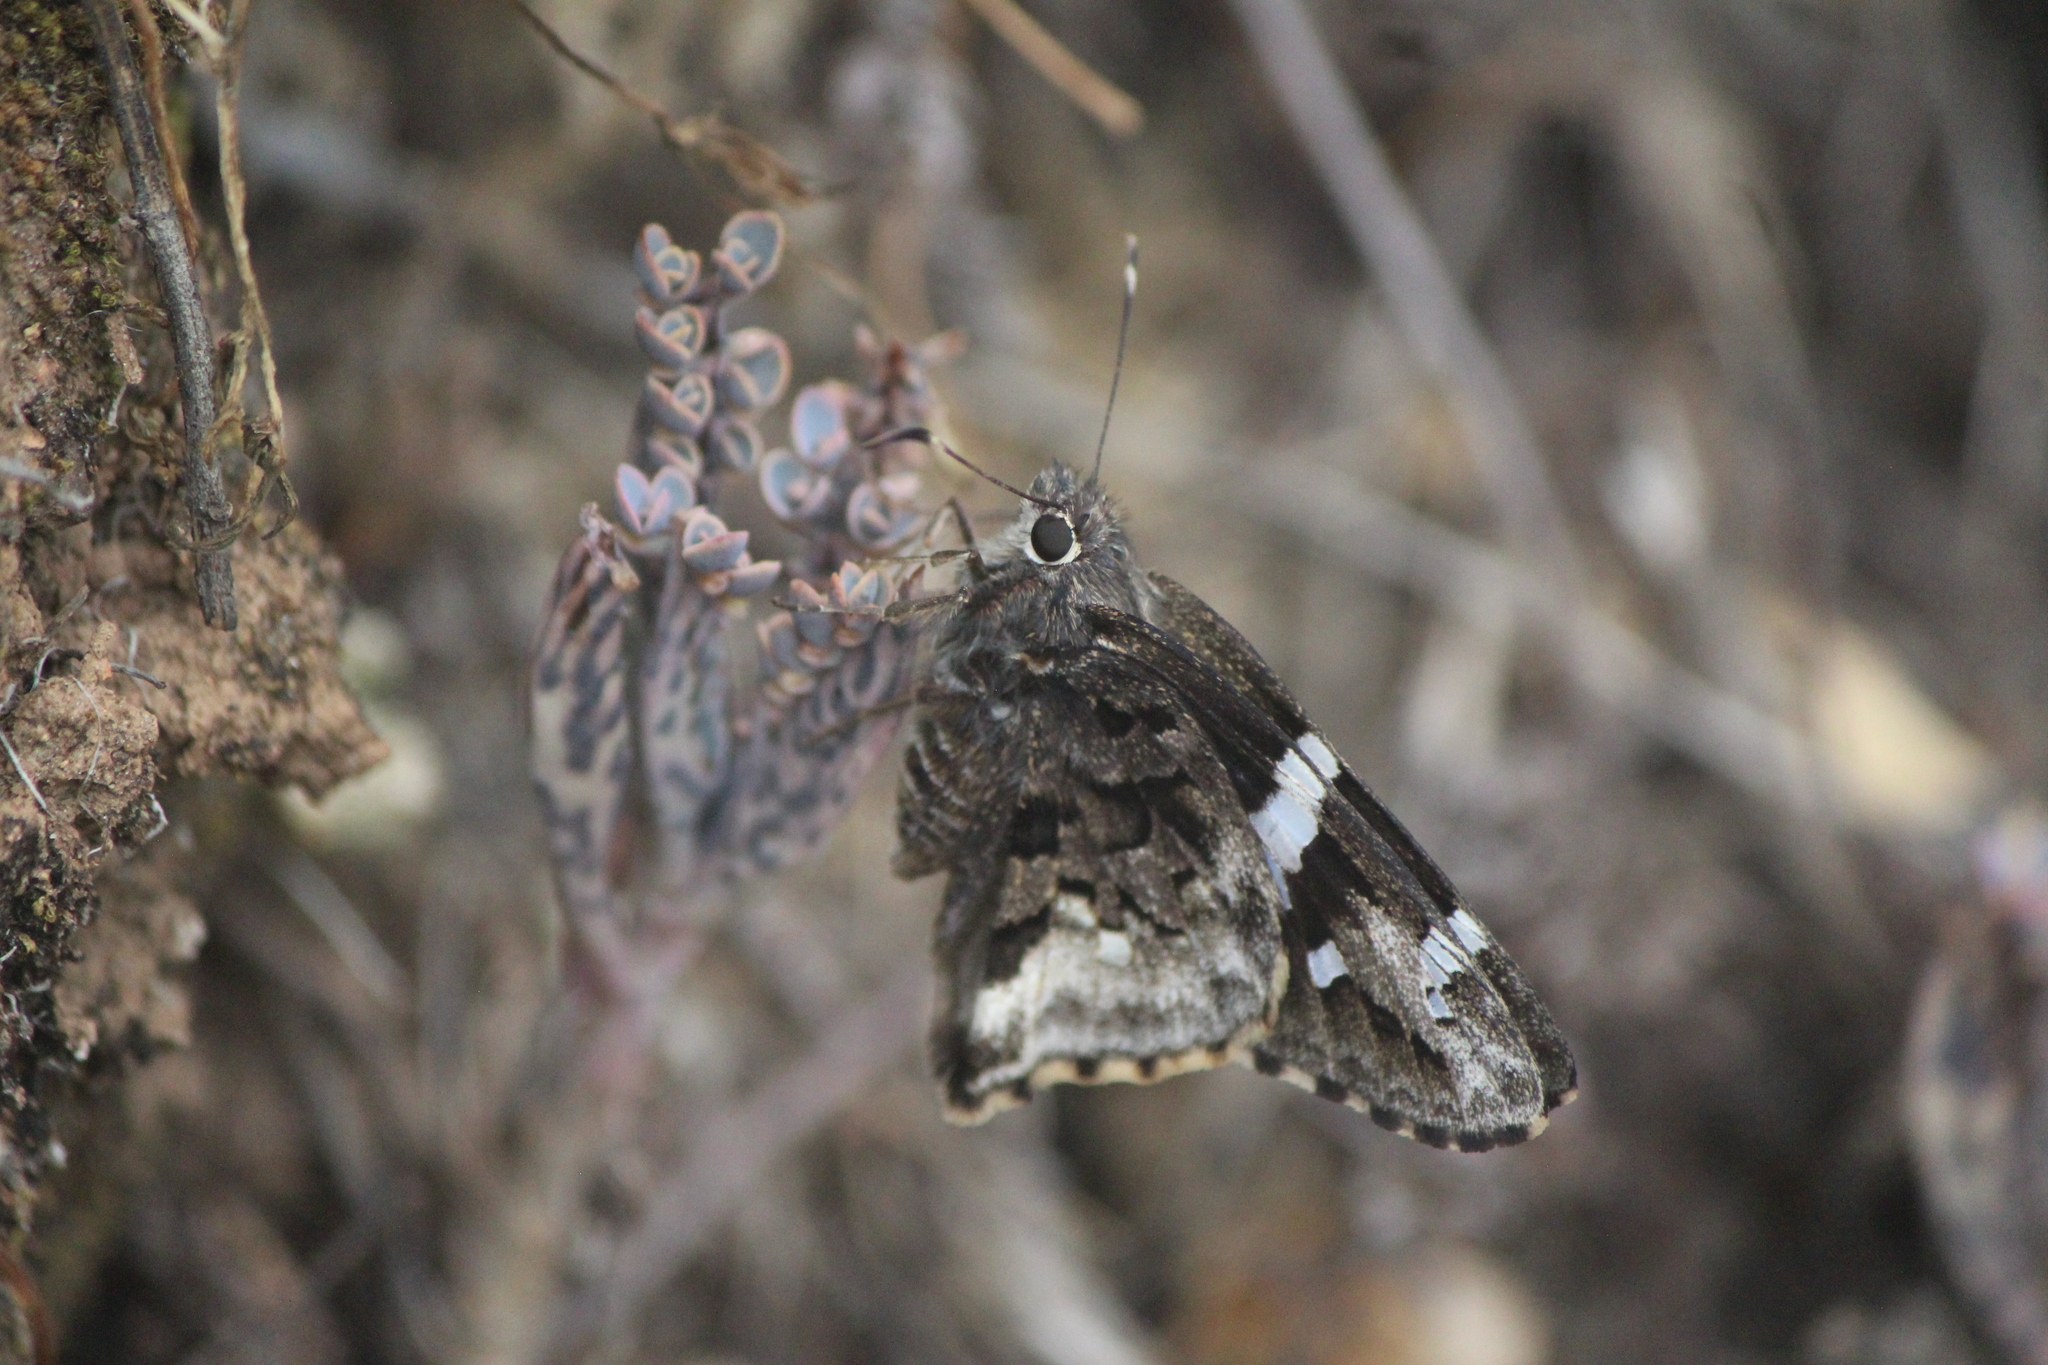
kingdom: Animalia
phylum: Arthropoda
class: Insecta
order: Lepidoptera
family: Hesperiidae
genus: Codatractus
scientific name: Codatractus arizonensis
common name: Arizona skipper
